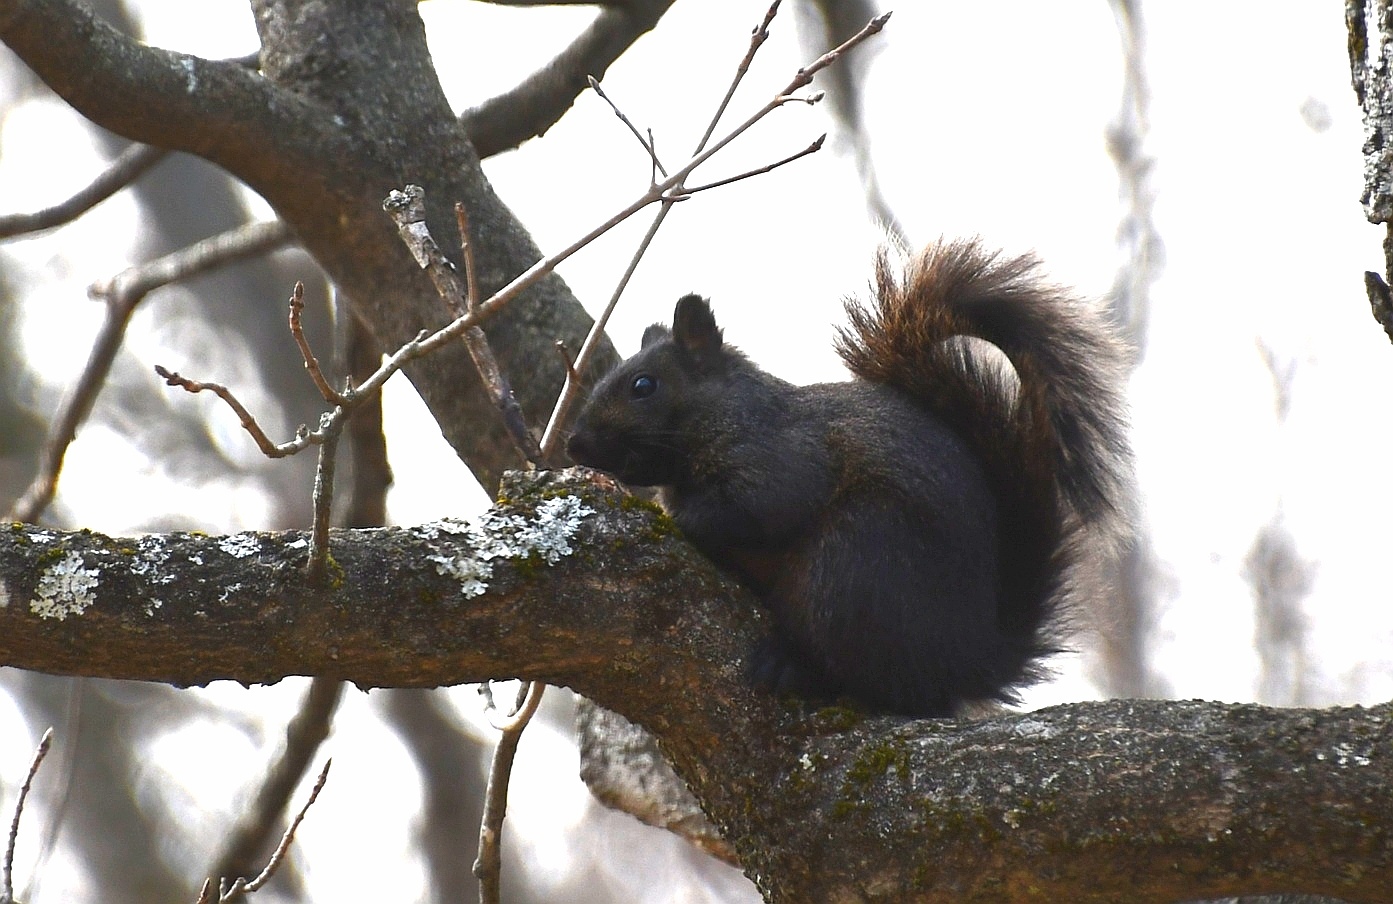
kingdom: Animalia
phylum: Chordata
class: Mammalia
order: Rodentia
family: Sciuridae
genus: Sciurus
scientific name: Sciurus carolinensis
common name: Eastern gray squirrel
